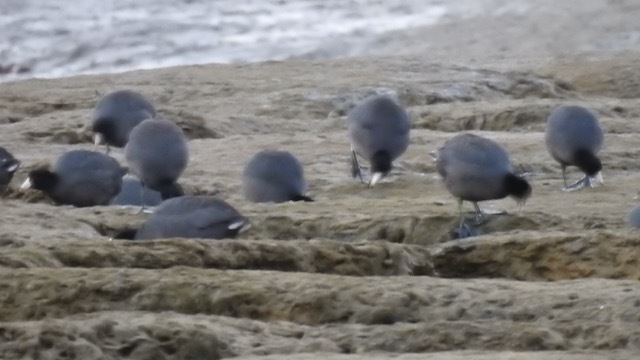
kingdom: Animalia
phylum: Chordata
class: Aves
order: Gruiformes
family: Rallidae
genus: Fulica
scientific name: Fulica americana
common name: American coot
